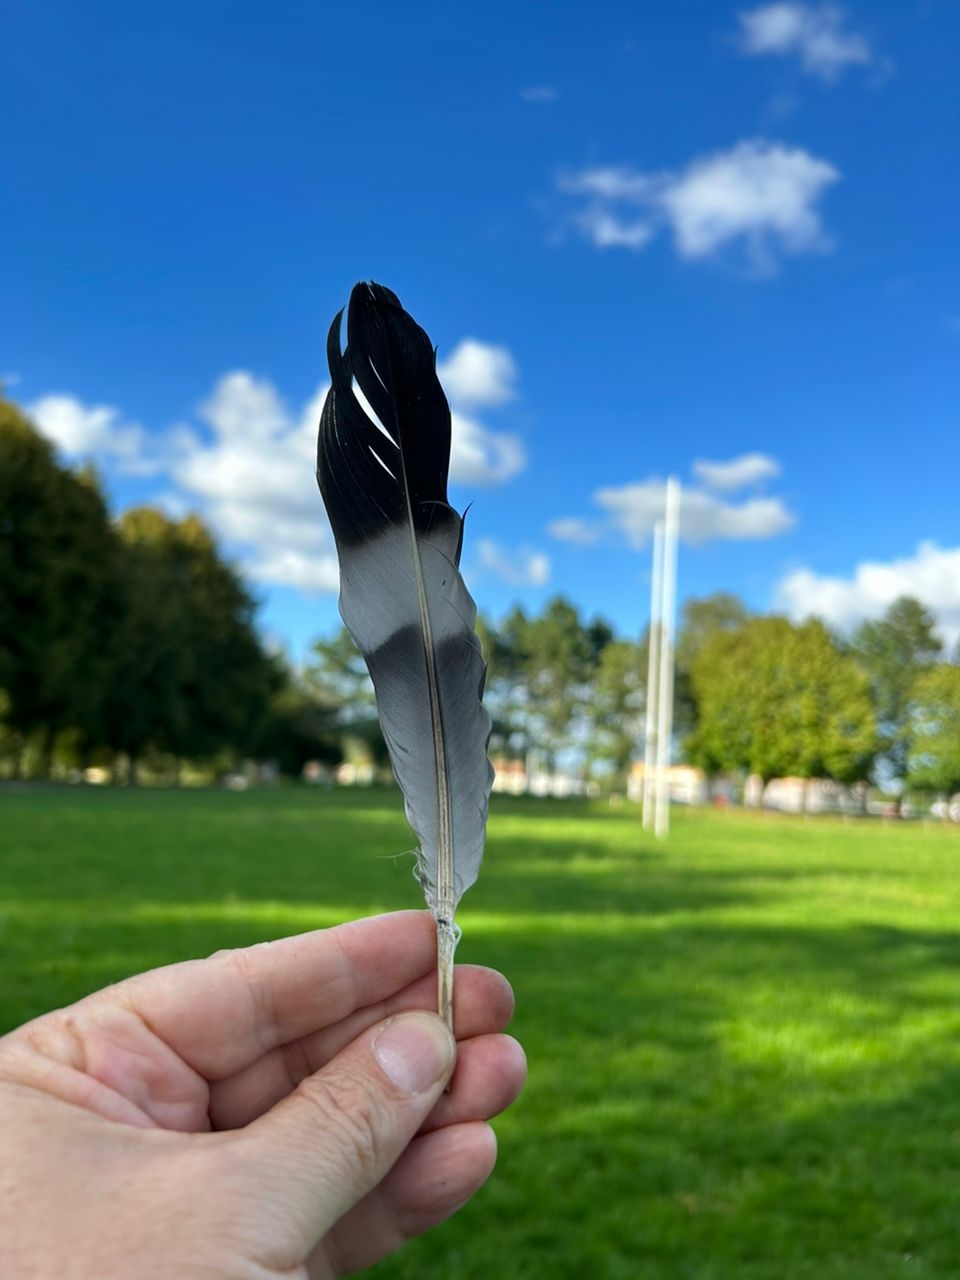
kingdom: Animalia
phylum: Chordata
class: Aves
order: Columbiformes
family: Columbidae
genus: Columba
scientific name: Columba palumbus
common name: Common wood pigeon
